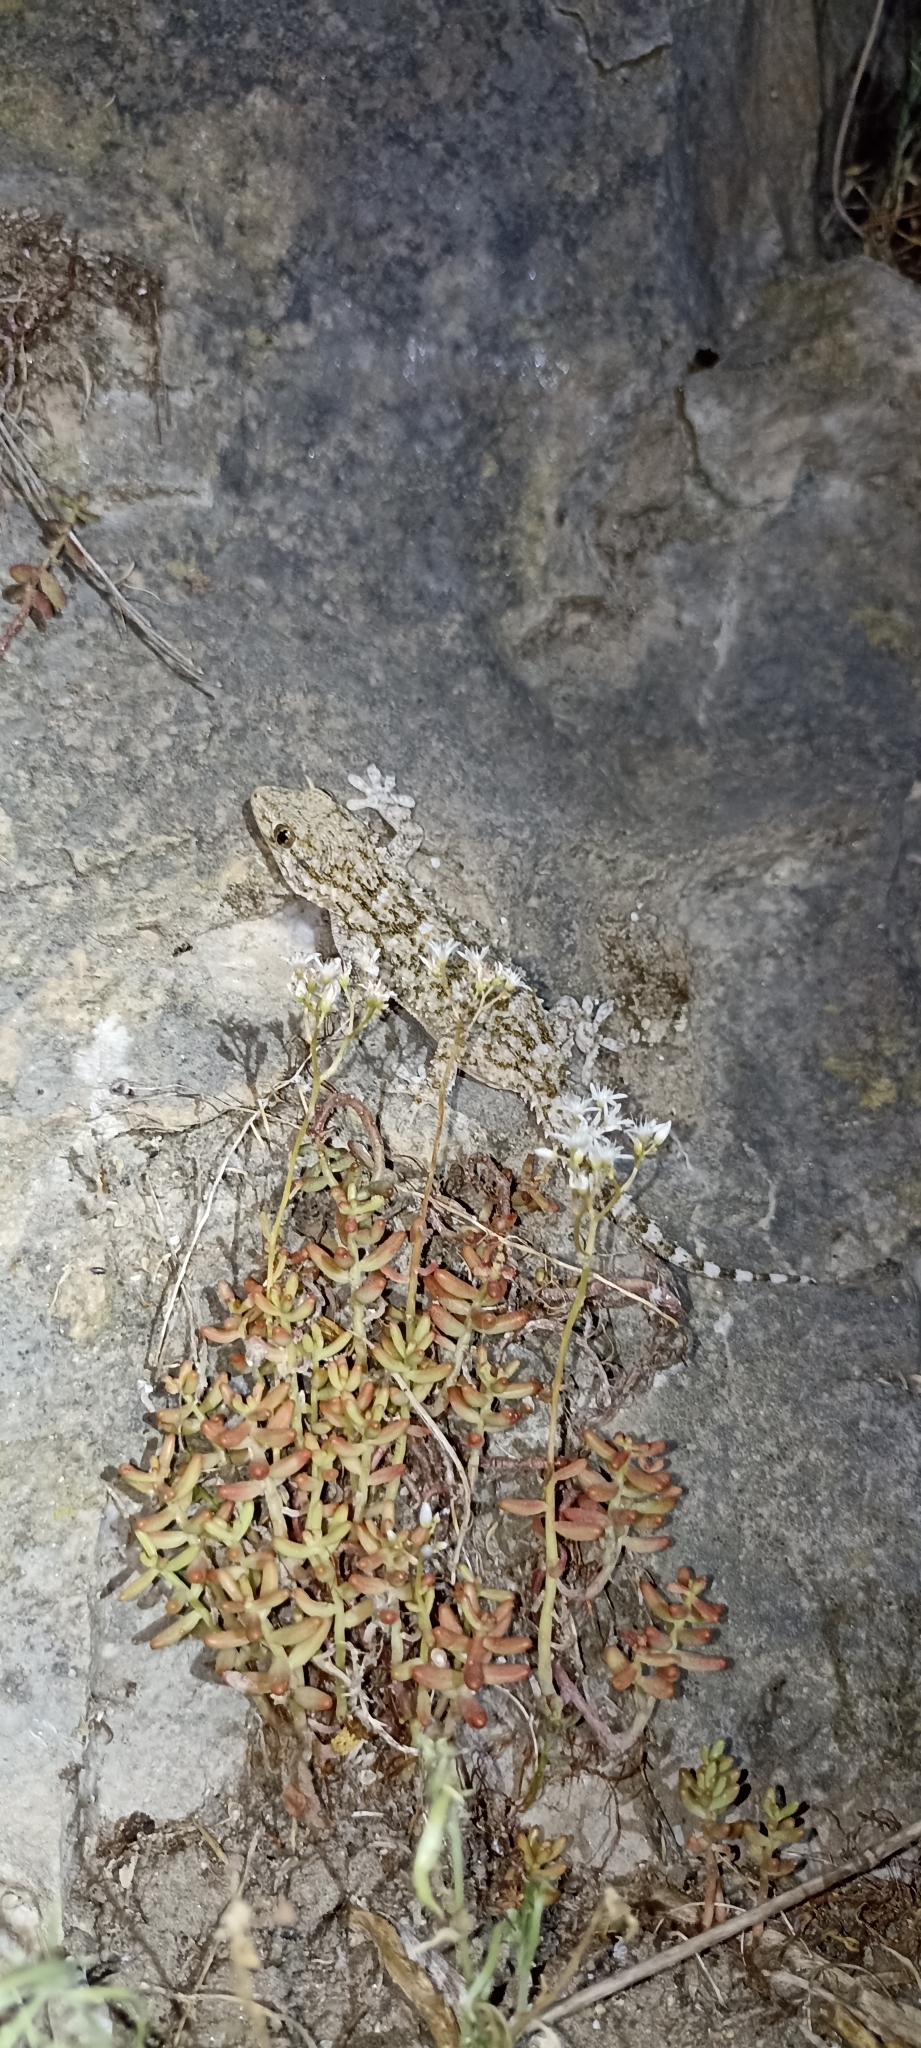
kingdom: Animalia
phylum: Chordata
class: Squamata
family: Phyllodactylidae
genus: Tarentola
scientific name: Tarentola mauritanica
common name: Moorish gecko
